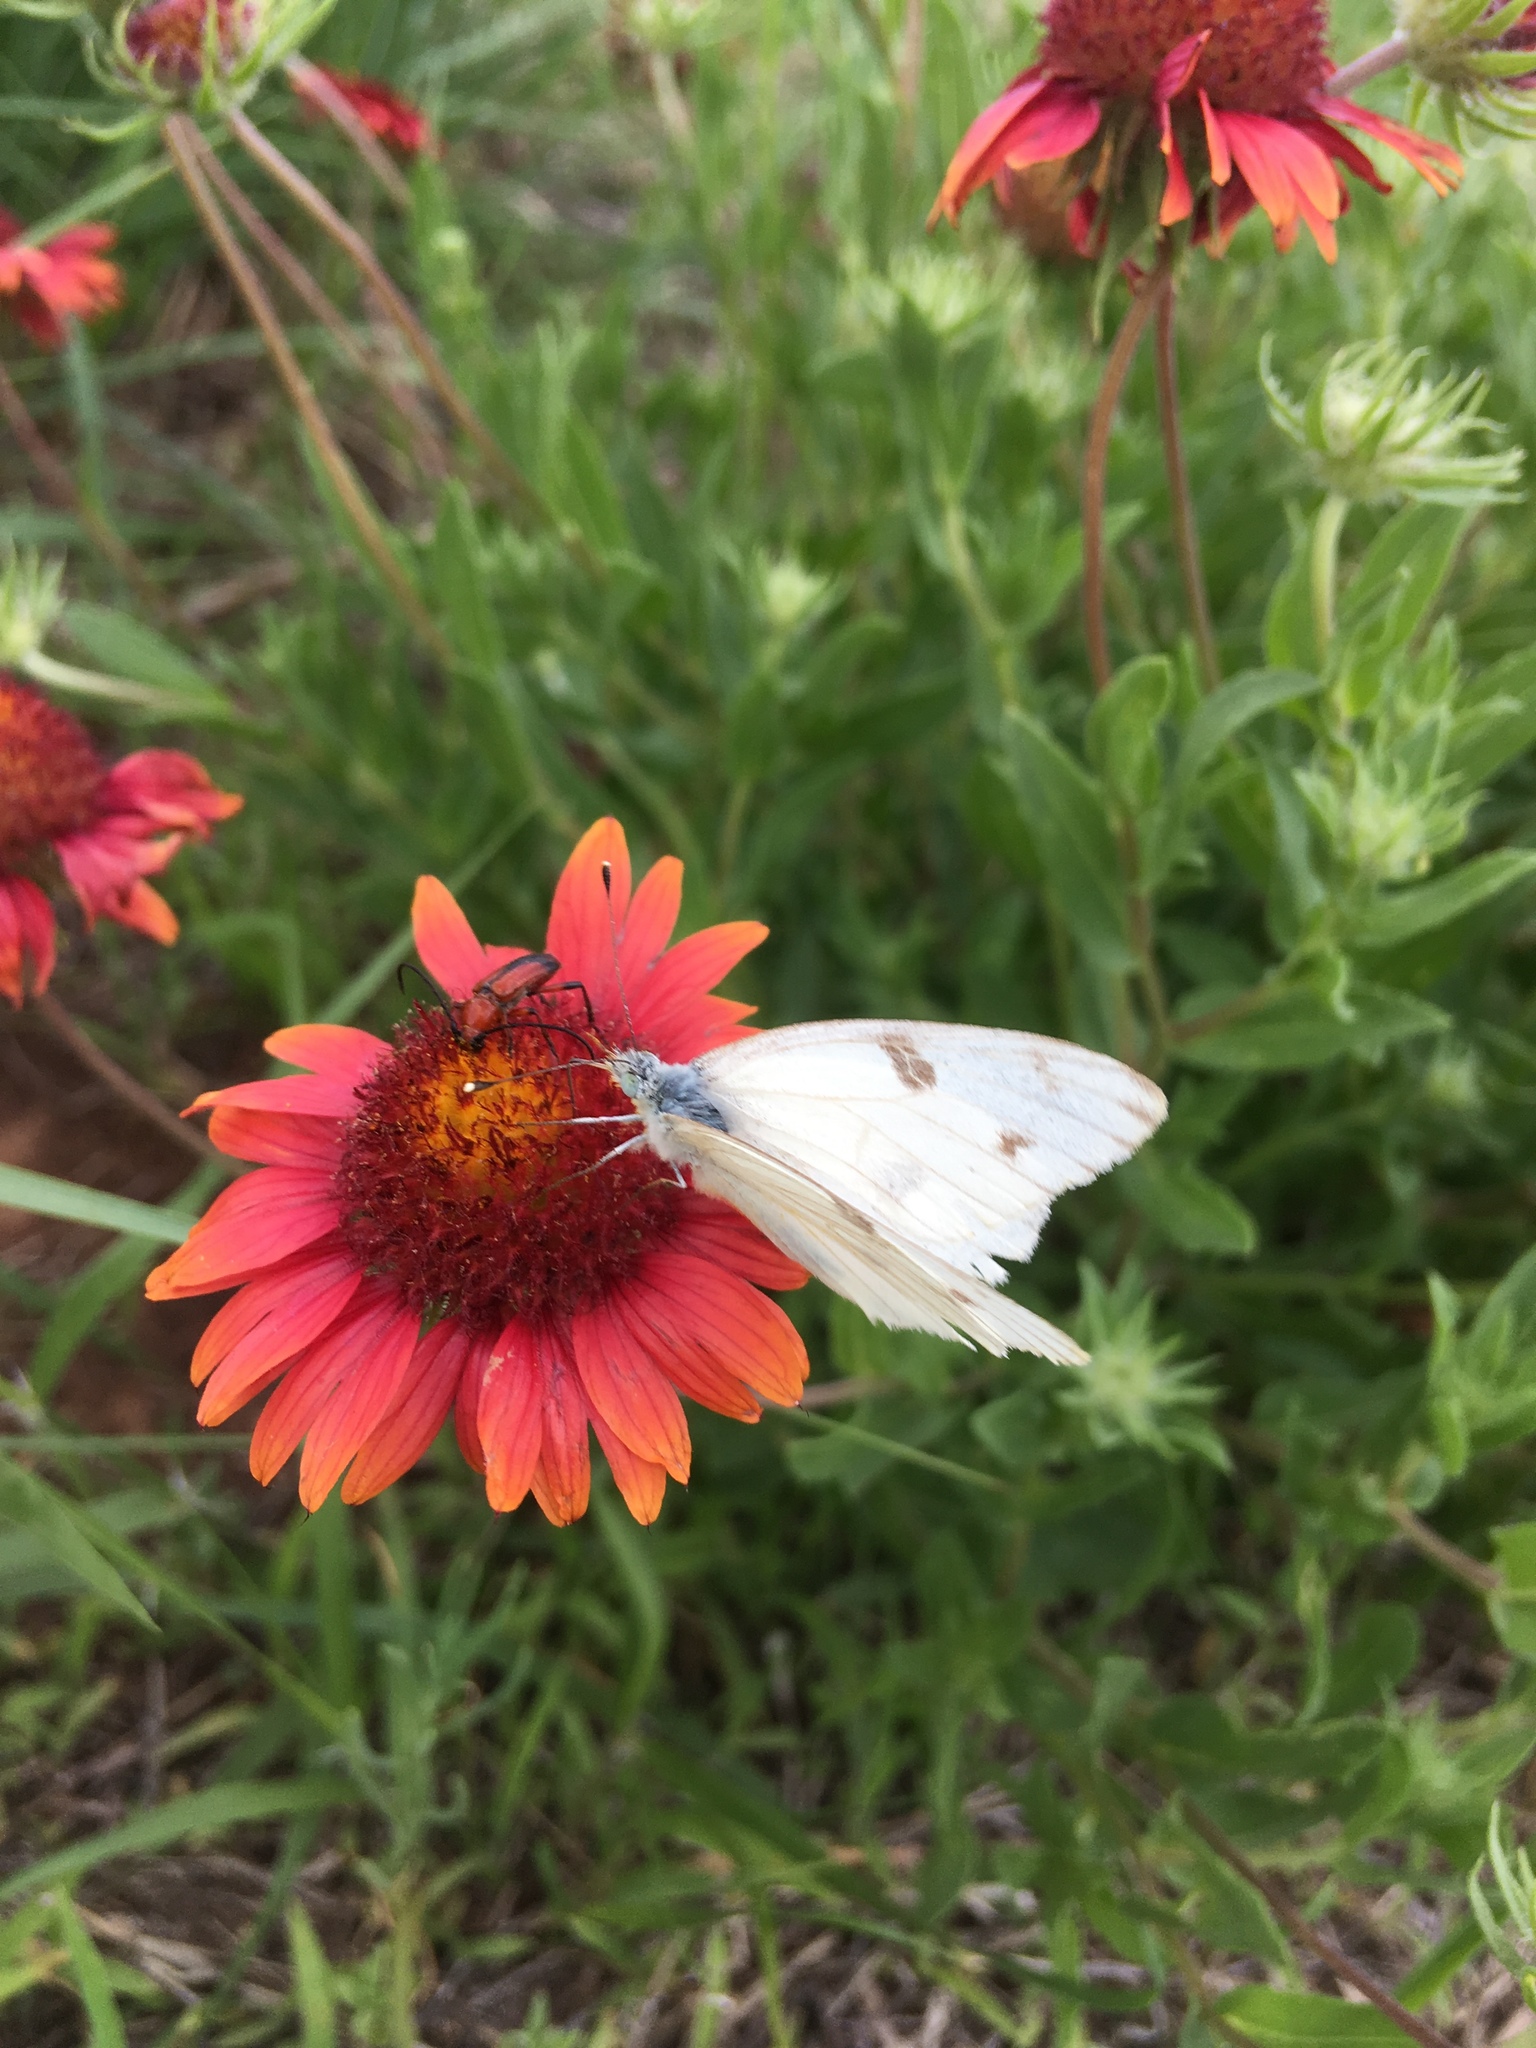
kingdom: Animalia
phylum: Arthropoda
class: Insecta
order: Lepidoptera
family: Pieridae
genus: Pontia
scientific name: Pontia protodice
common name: Checkered white
